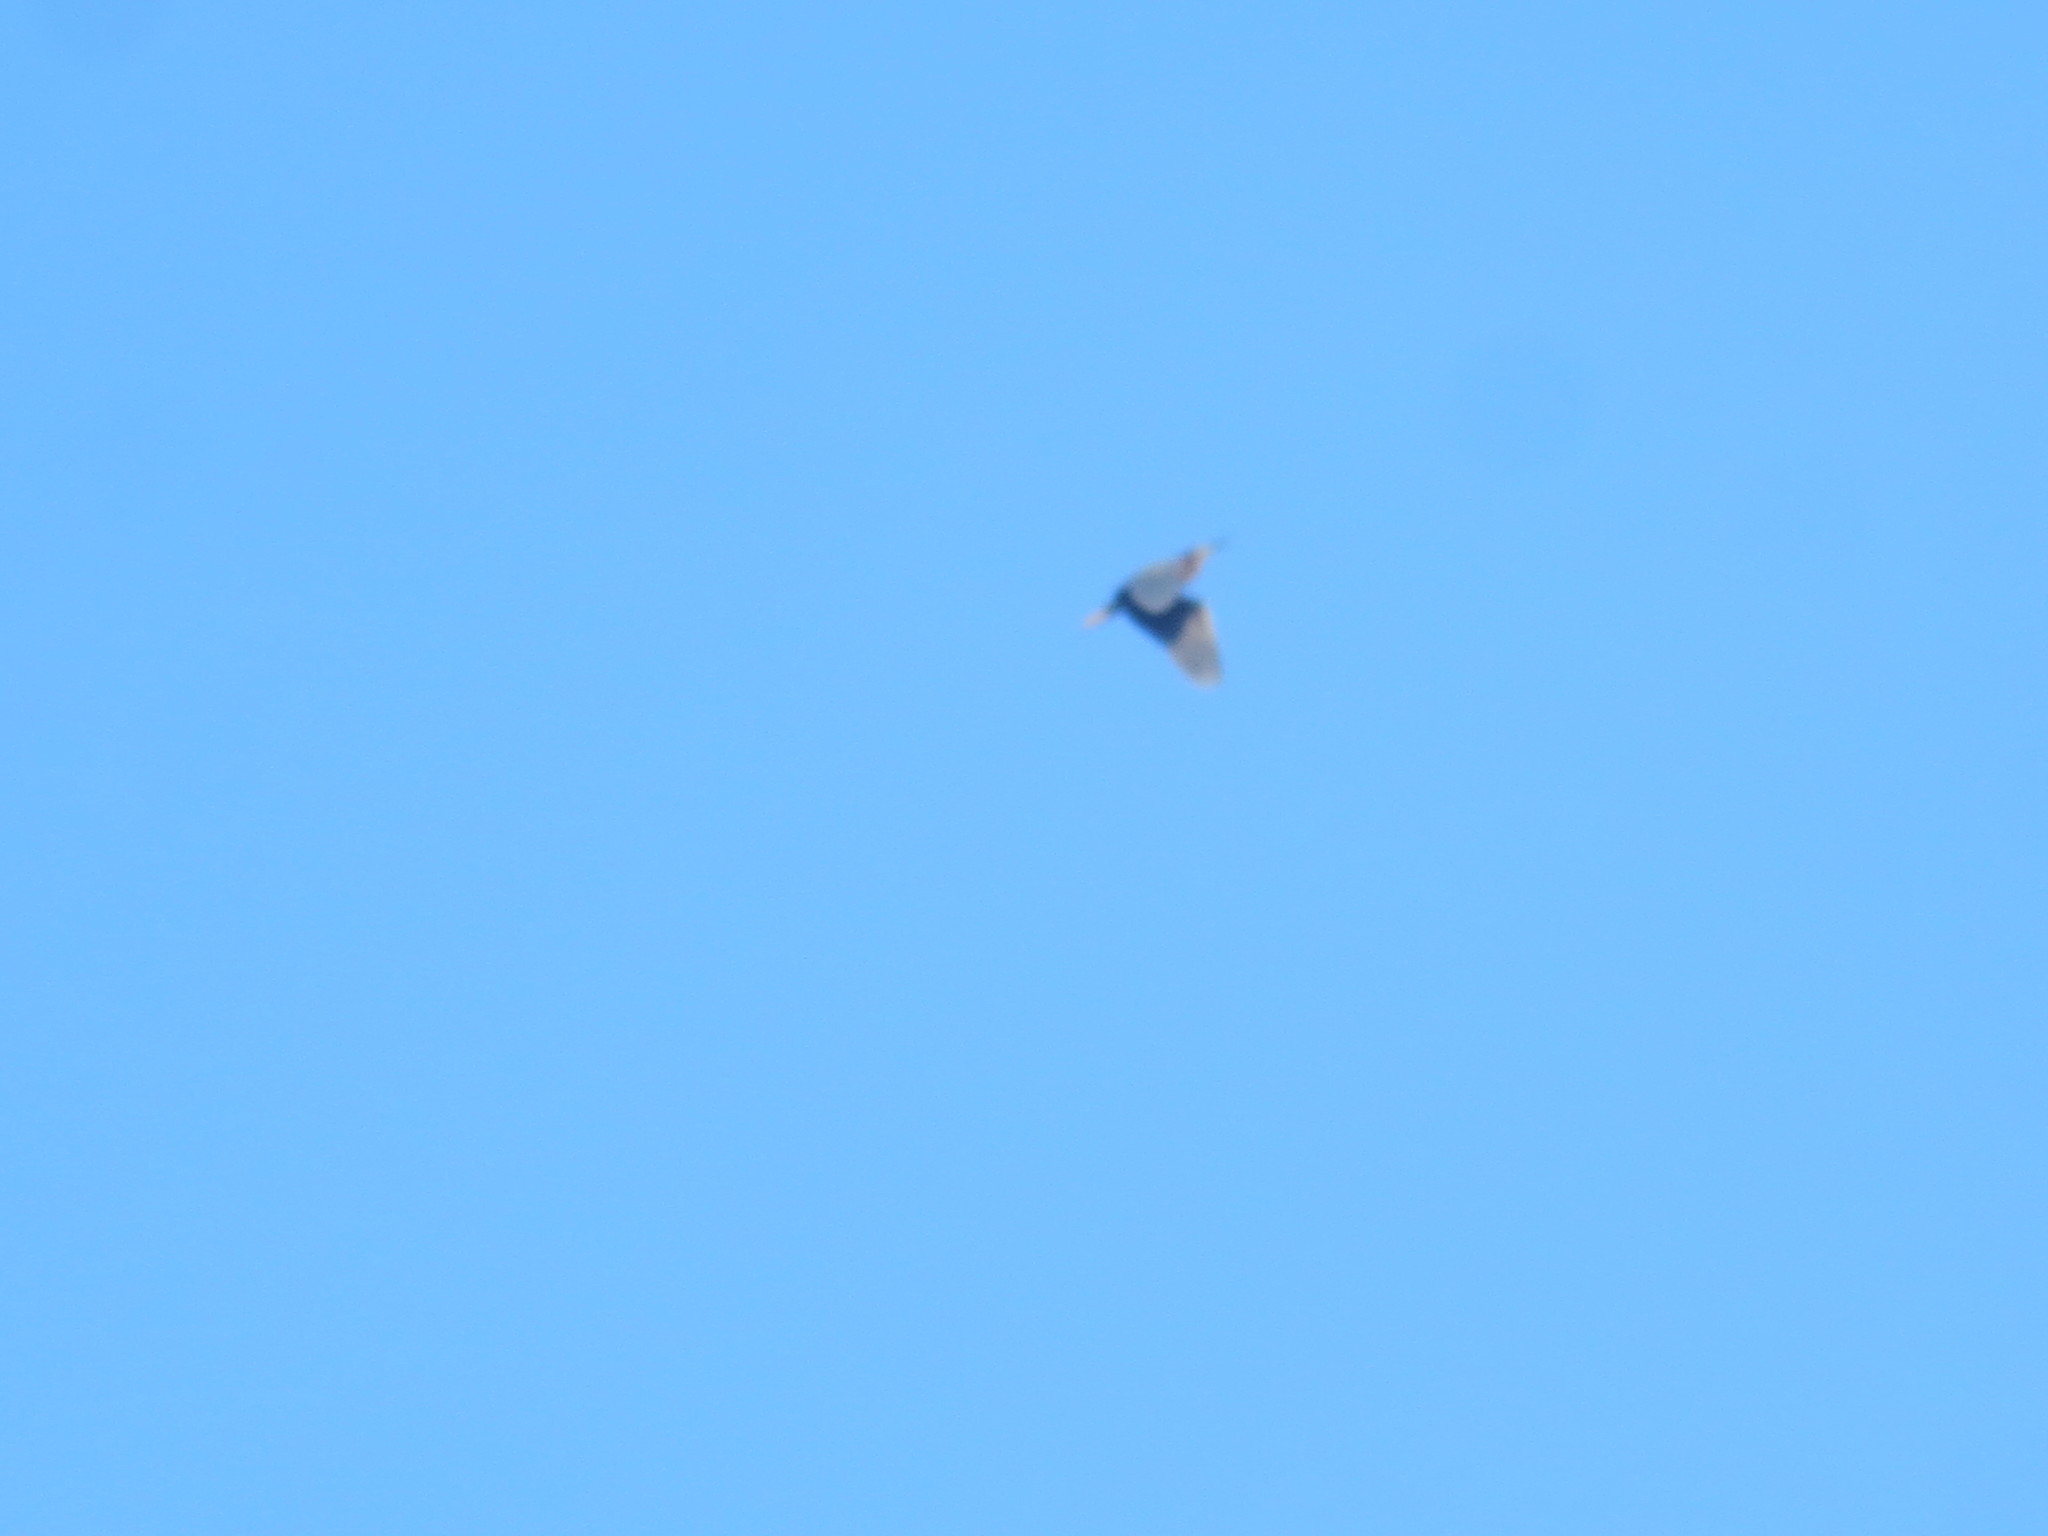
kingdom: Animalia
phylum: Chordata
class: Aves
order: Pelecaniformes
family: Ardeidae
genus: Butorides
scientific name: Butorides virescens
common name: Green heron
